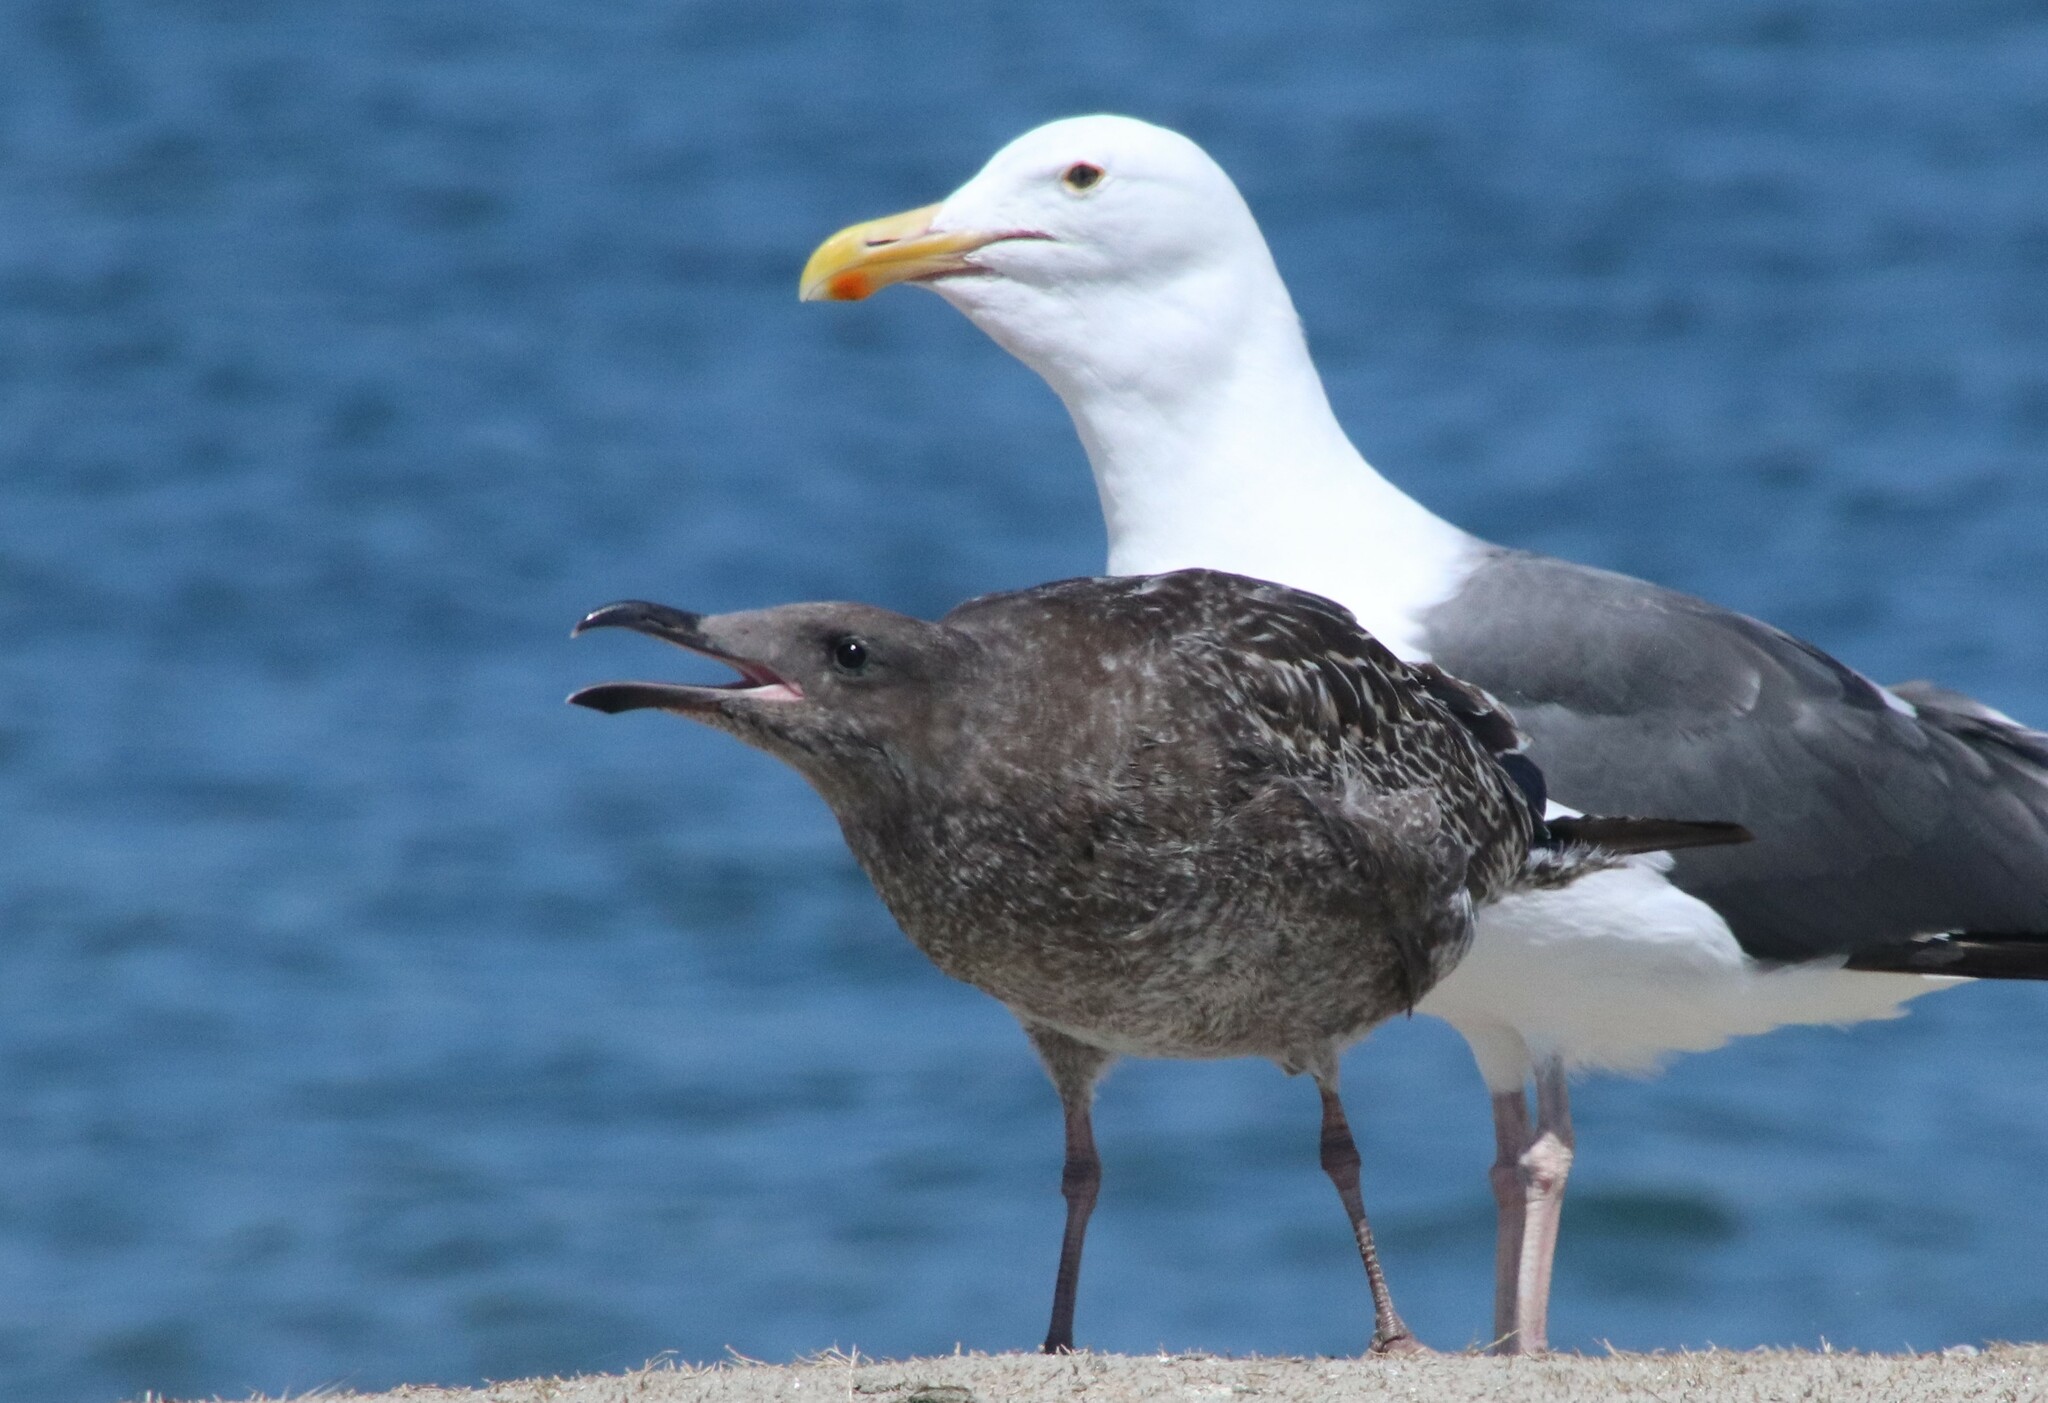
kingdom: Animalia
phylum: Chordata
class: Aves
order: Charadriiformes
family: Laridae
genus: Larus
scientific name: Larus occidentalis
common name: Western gull
